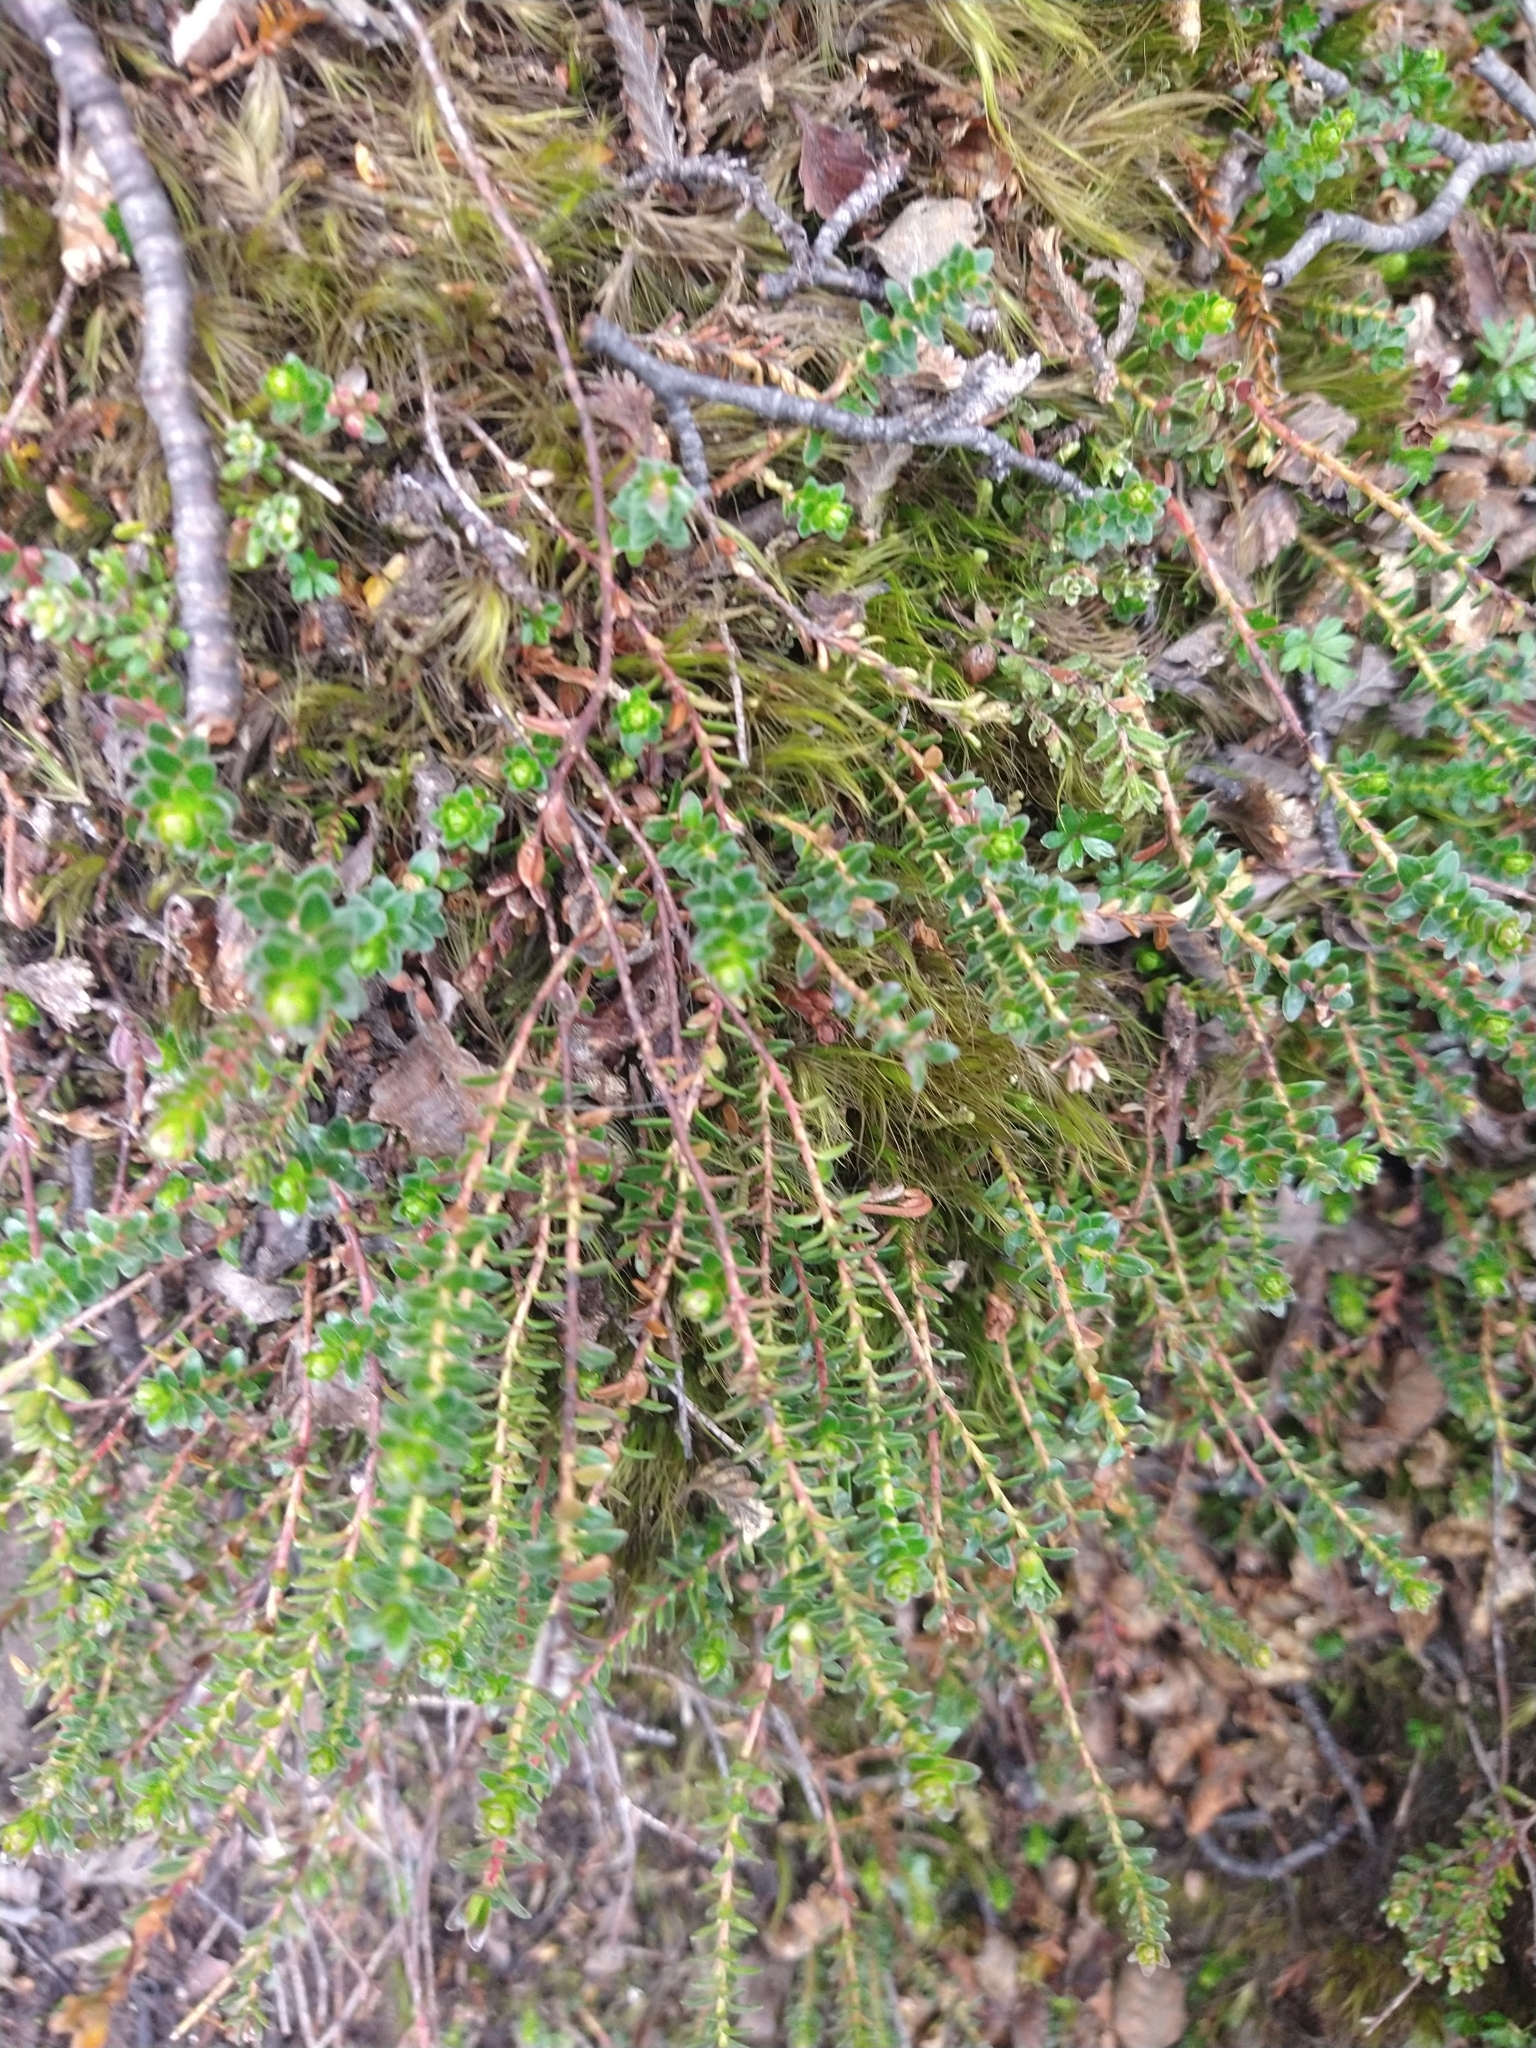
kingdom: Plantae
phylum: Tracheophyta
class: Magnoliopsida
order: Ericales
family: Ericaceae
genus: Gaultheria
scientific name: Gaultheria pumila
